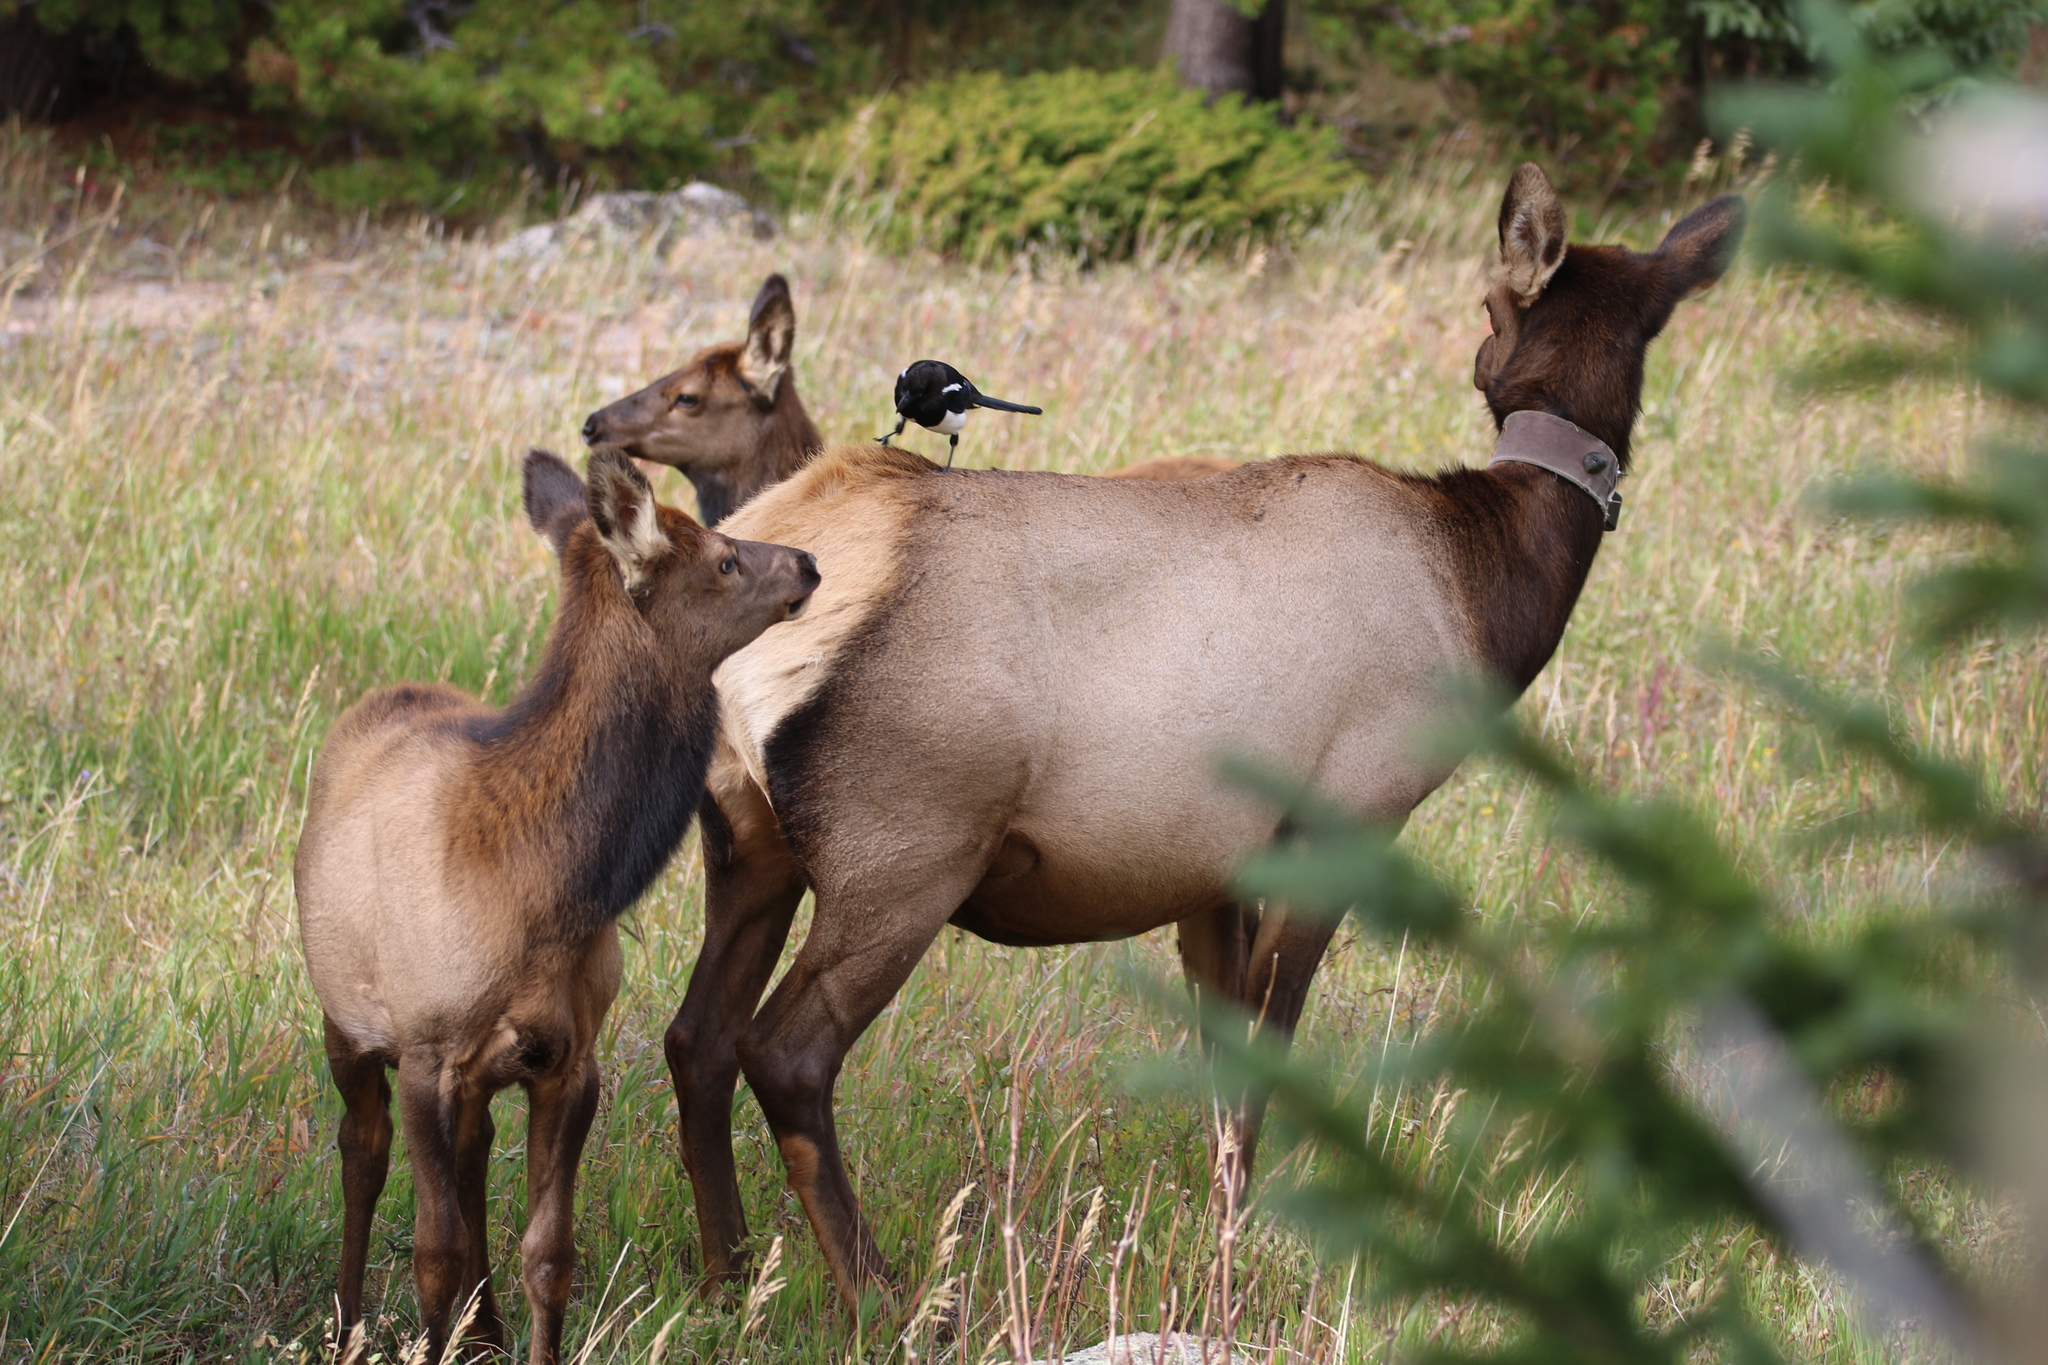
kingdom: Animalia
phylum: Chordata
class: Aves
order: Passeriformes
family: Corvidae
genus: Pica
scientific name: Pica hudsonia
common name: Black-billed magpie
